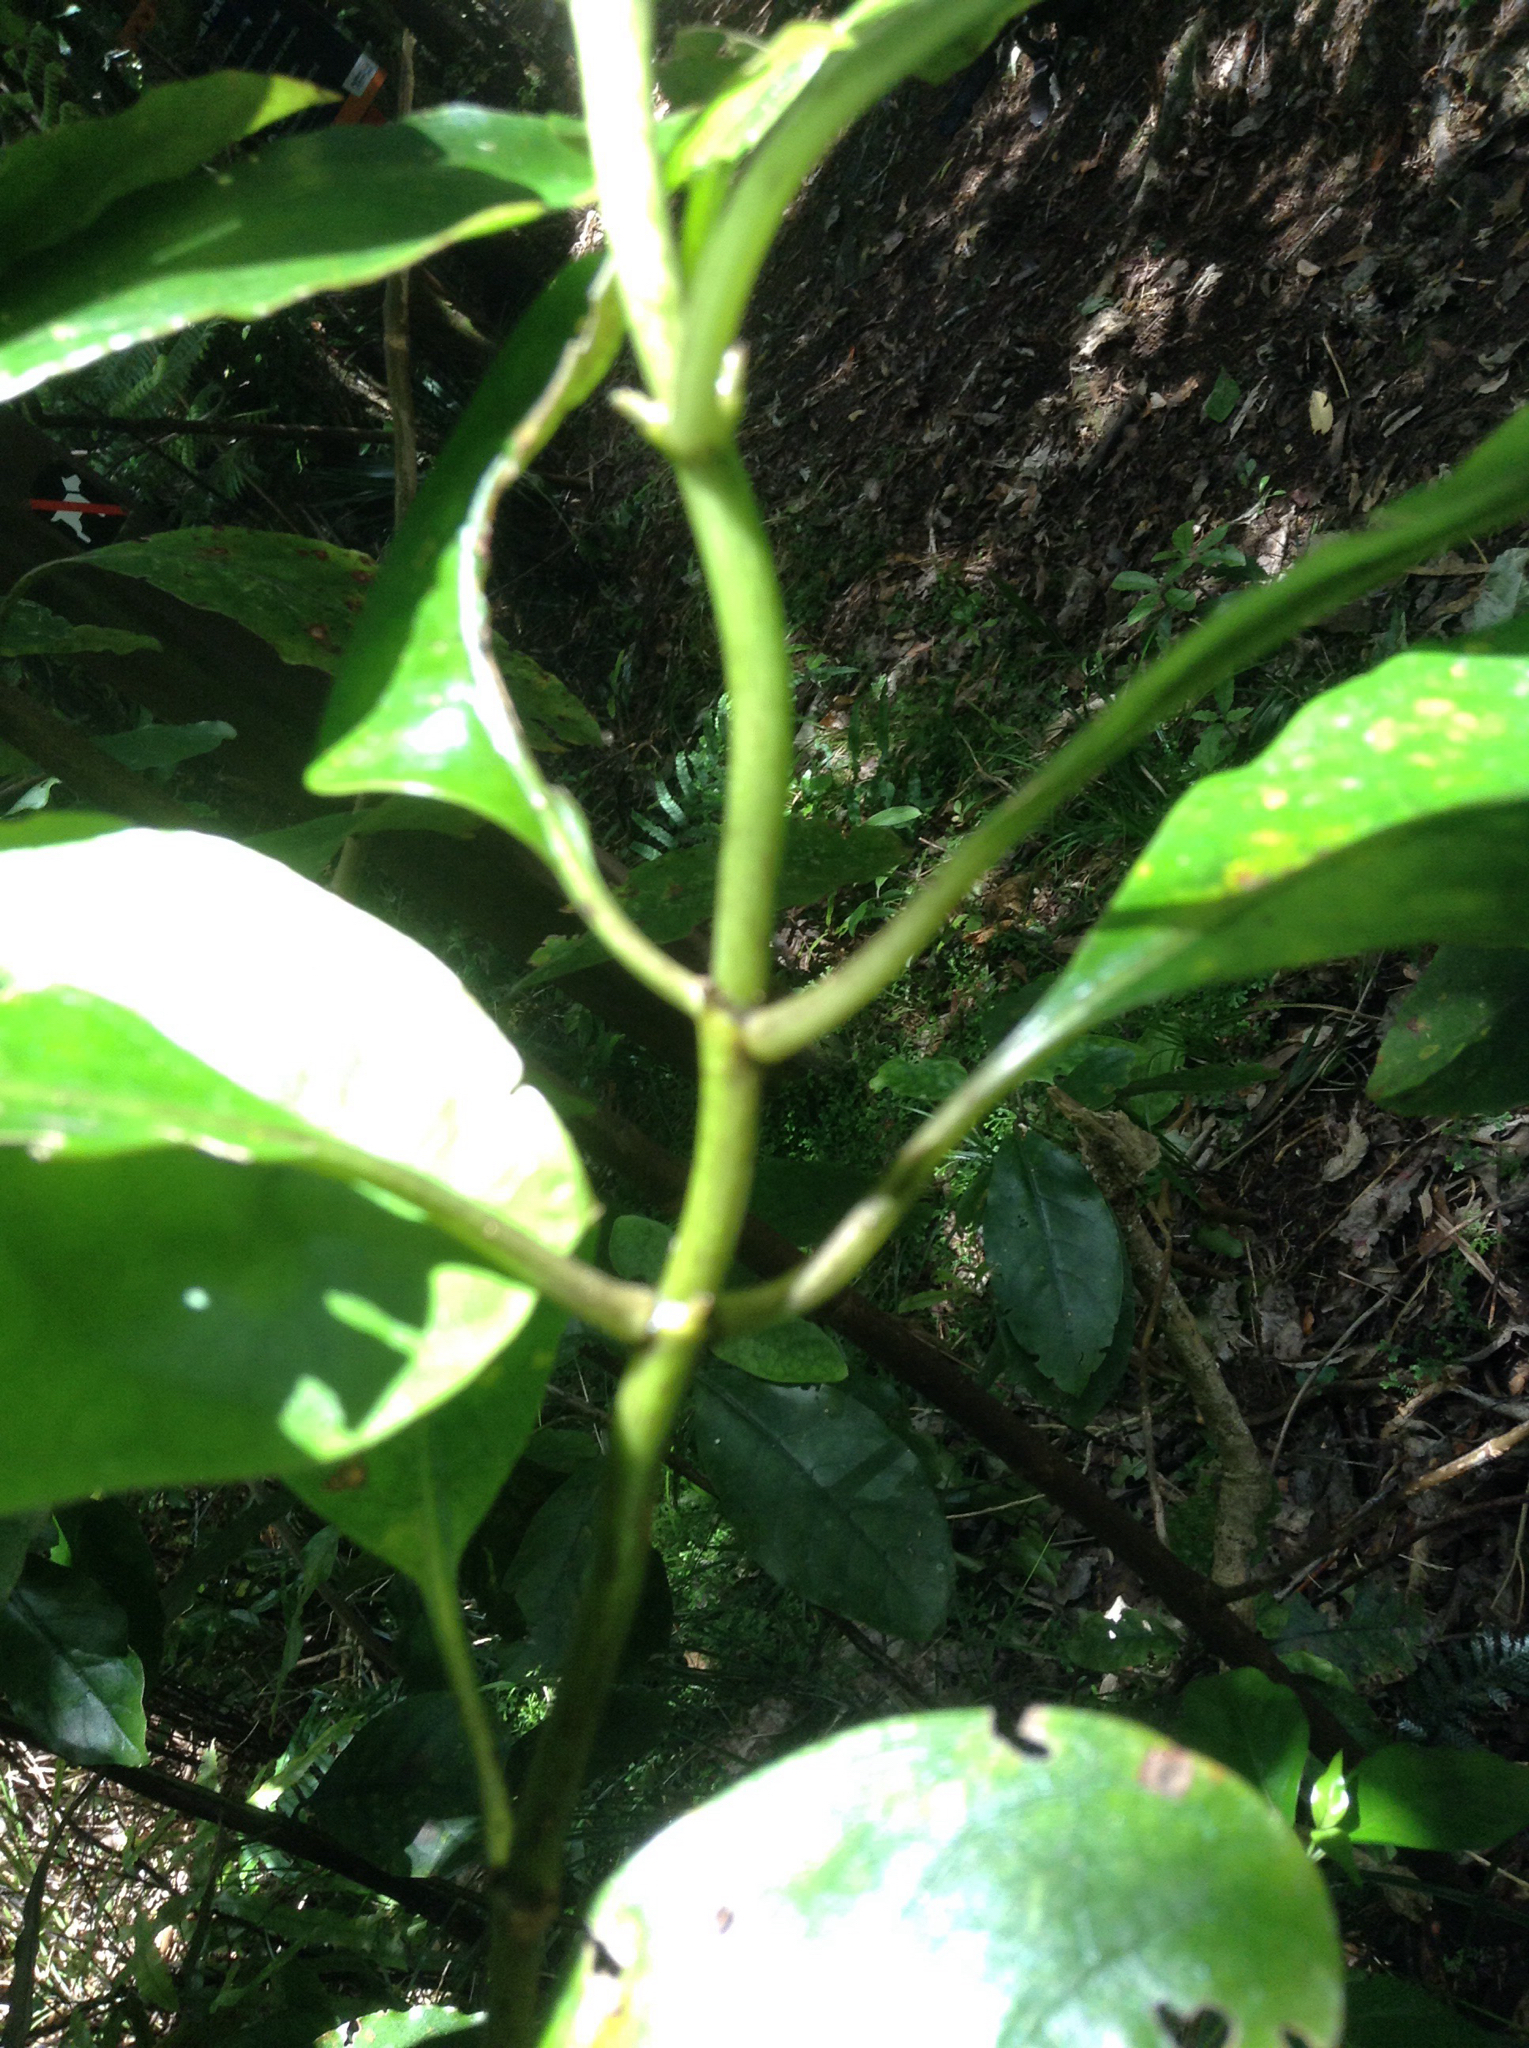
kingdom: Plantae
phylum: Tracheophyta
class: Magnoliopsida
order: Gentianales
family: Rubiaceae
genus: Coprosma
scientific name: Coprosma autumnalis
